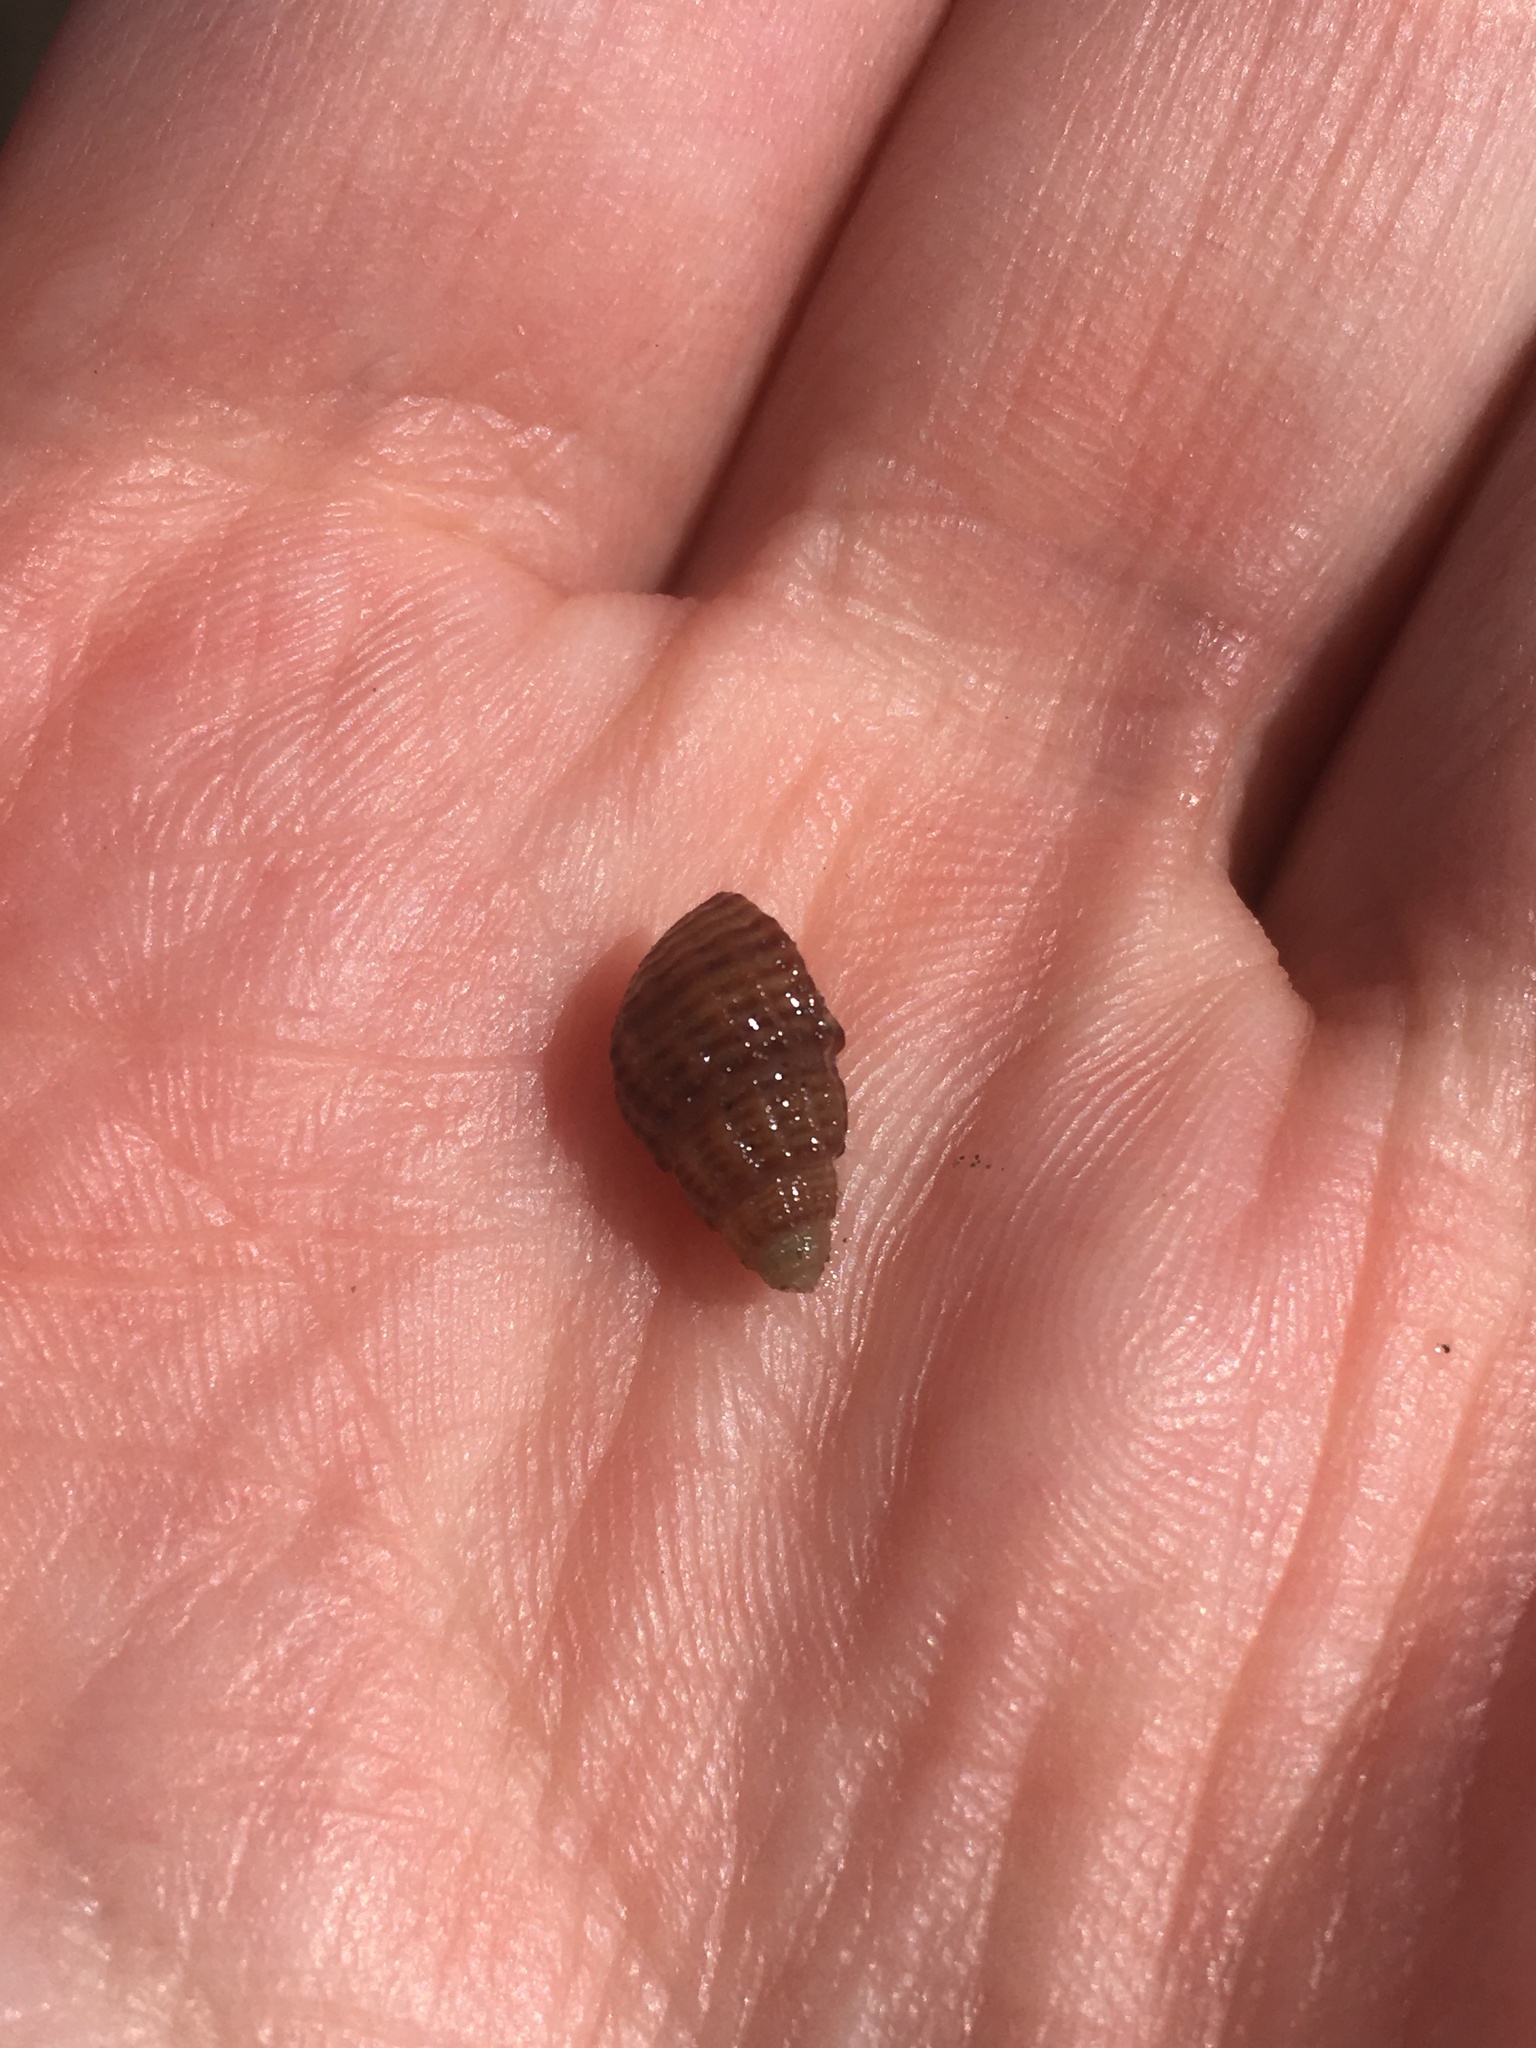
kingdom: Animalia
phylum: Mollusca
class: Gastropoda
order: Neogastropoda
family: Nassariidae
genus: Ilyanassa
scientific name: Ilyanassa trivittata
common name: Three-line mudsnail
